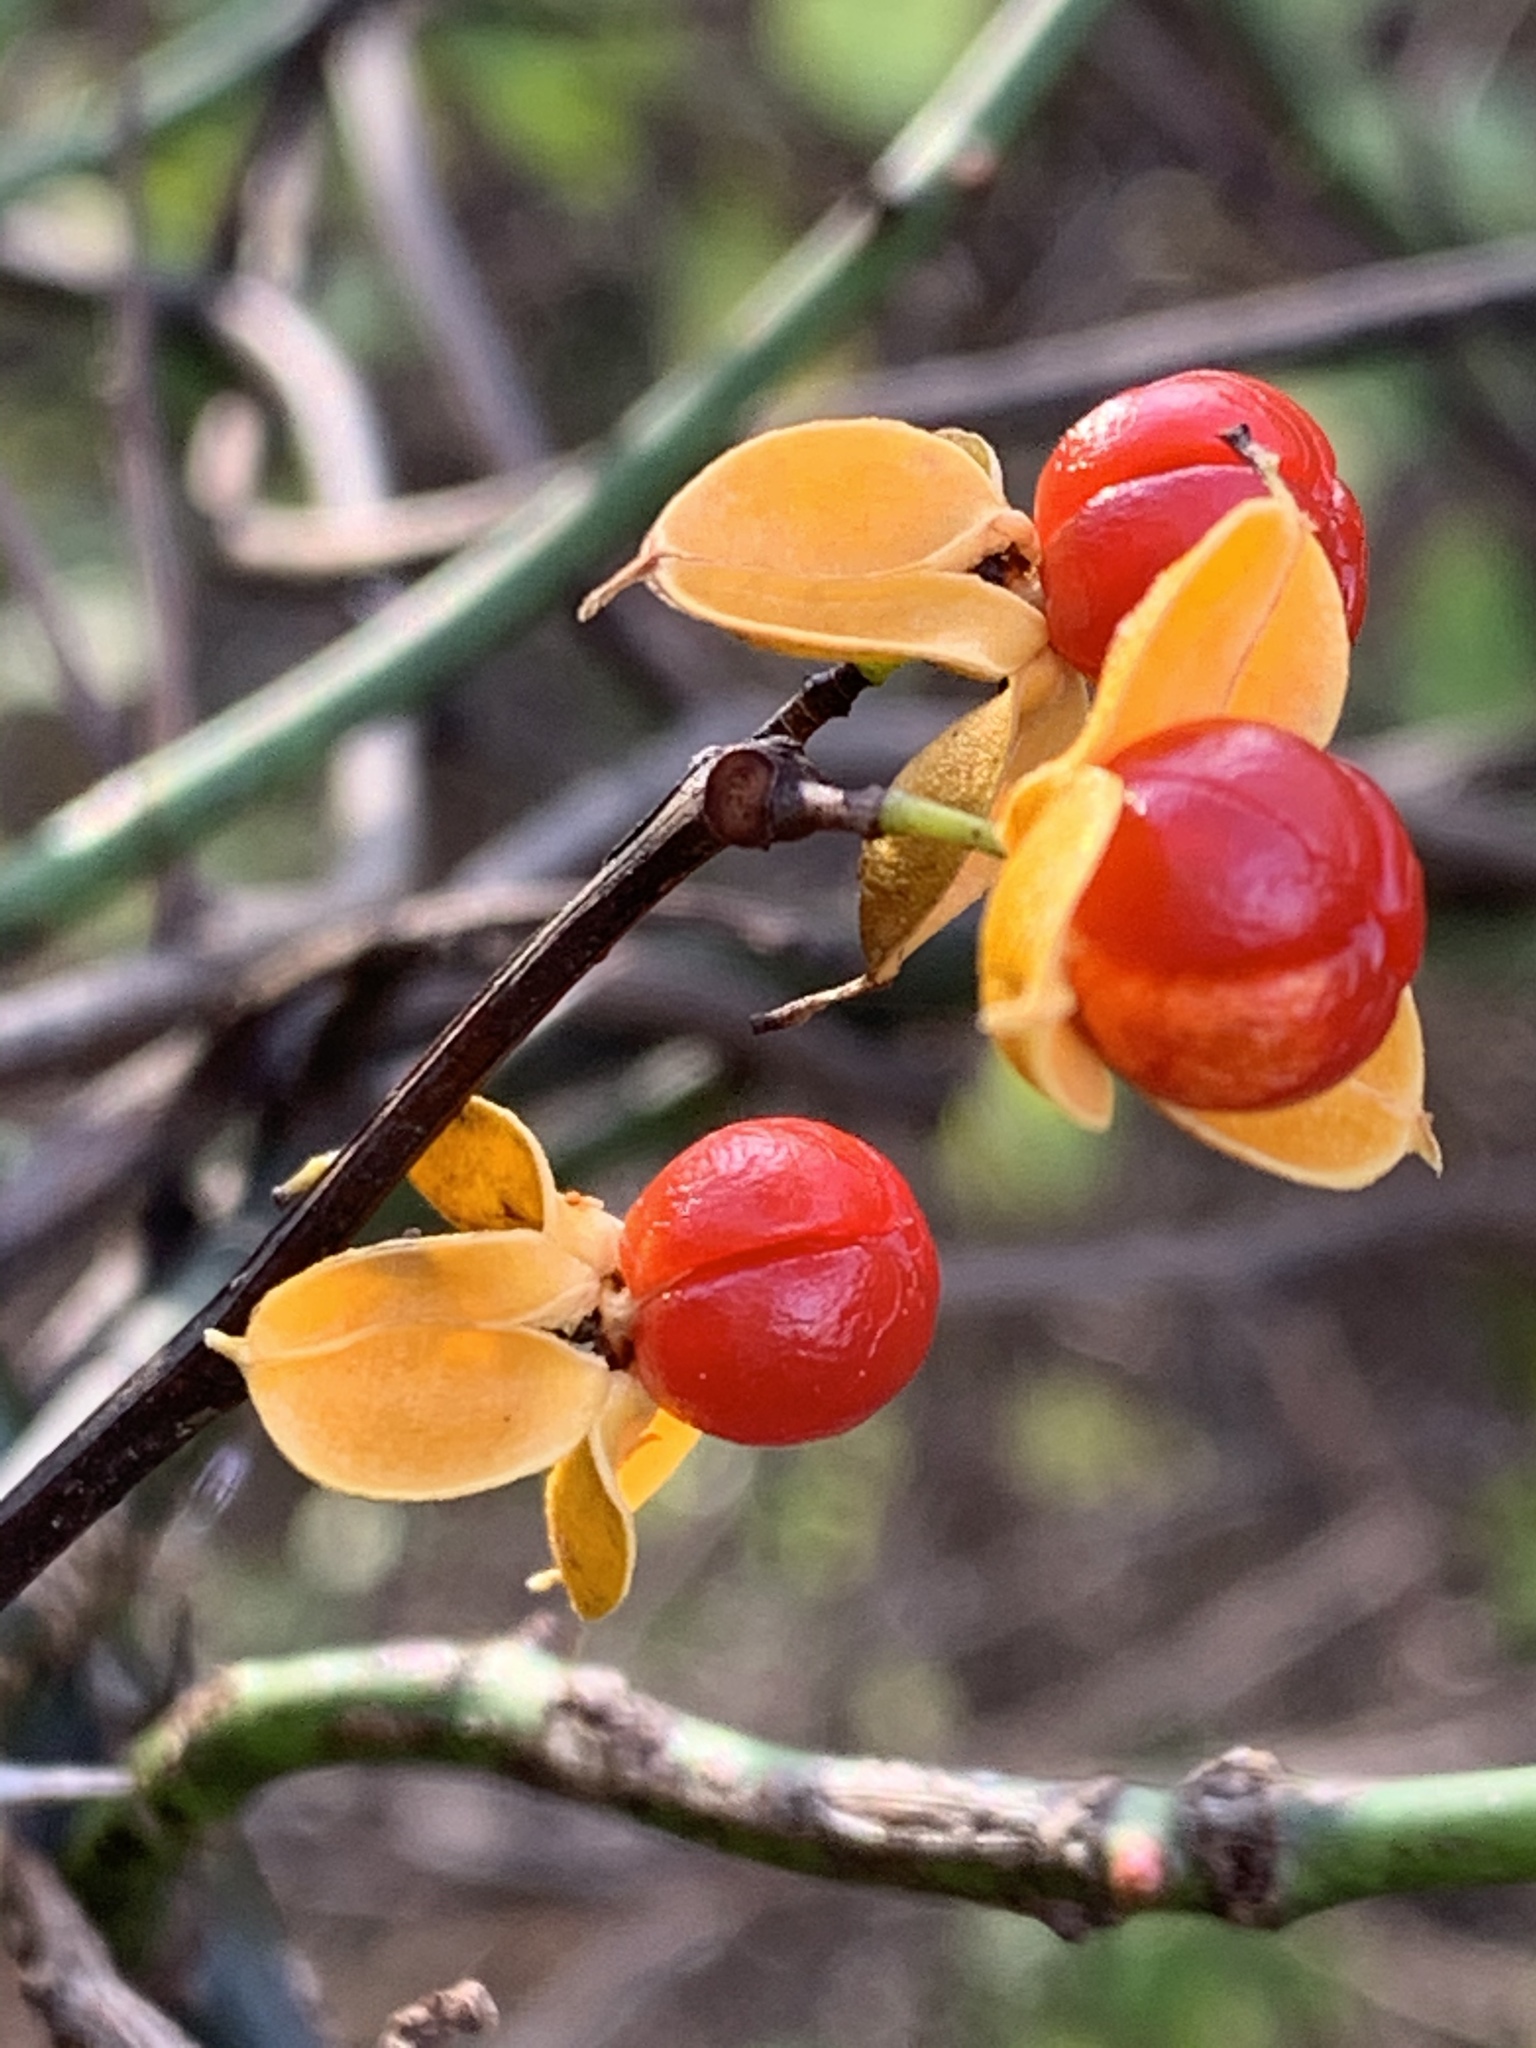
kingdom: Plantae
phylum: Tracheophyta
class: Magnoliopsida
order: Celastrales
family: Celastraceae
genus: Celastrus
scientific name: Celastrus orbiculatus
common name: Oriental bittersweet
